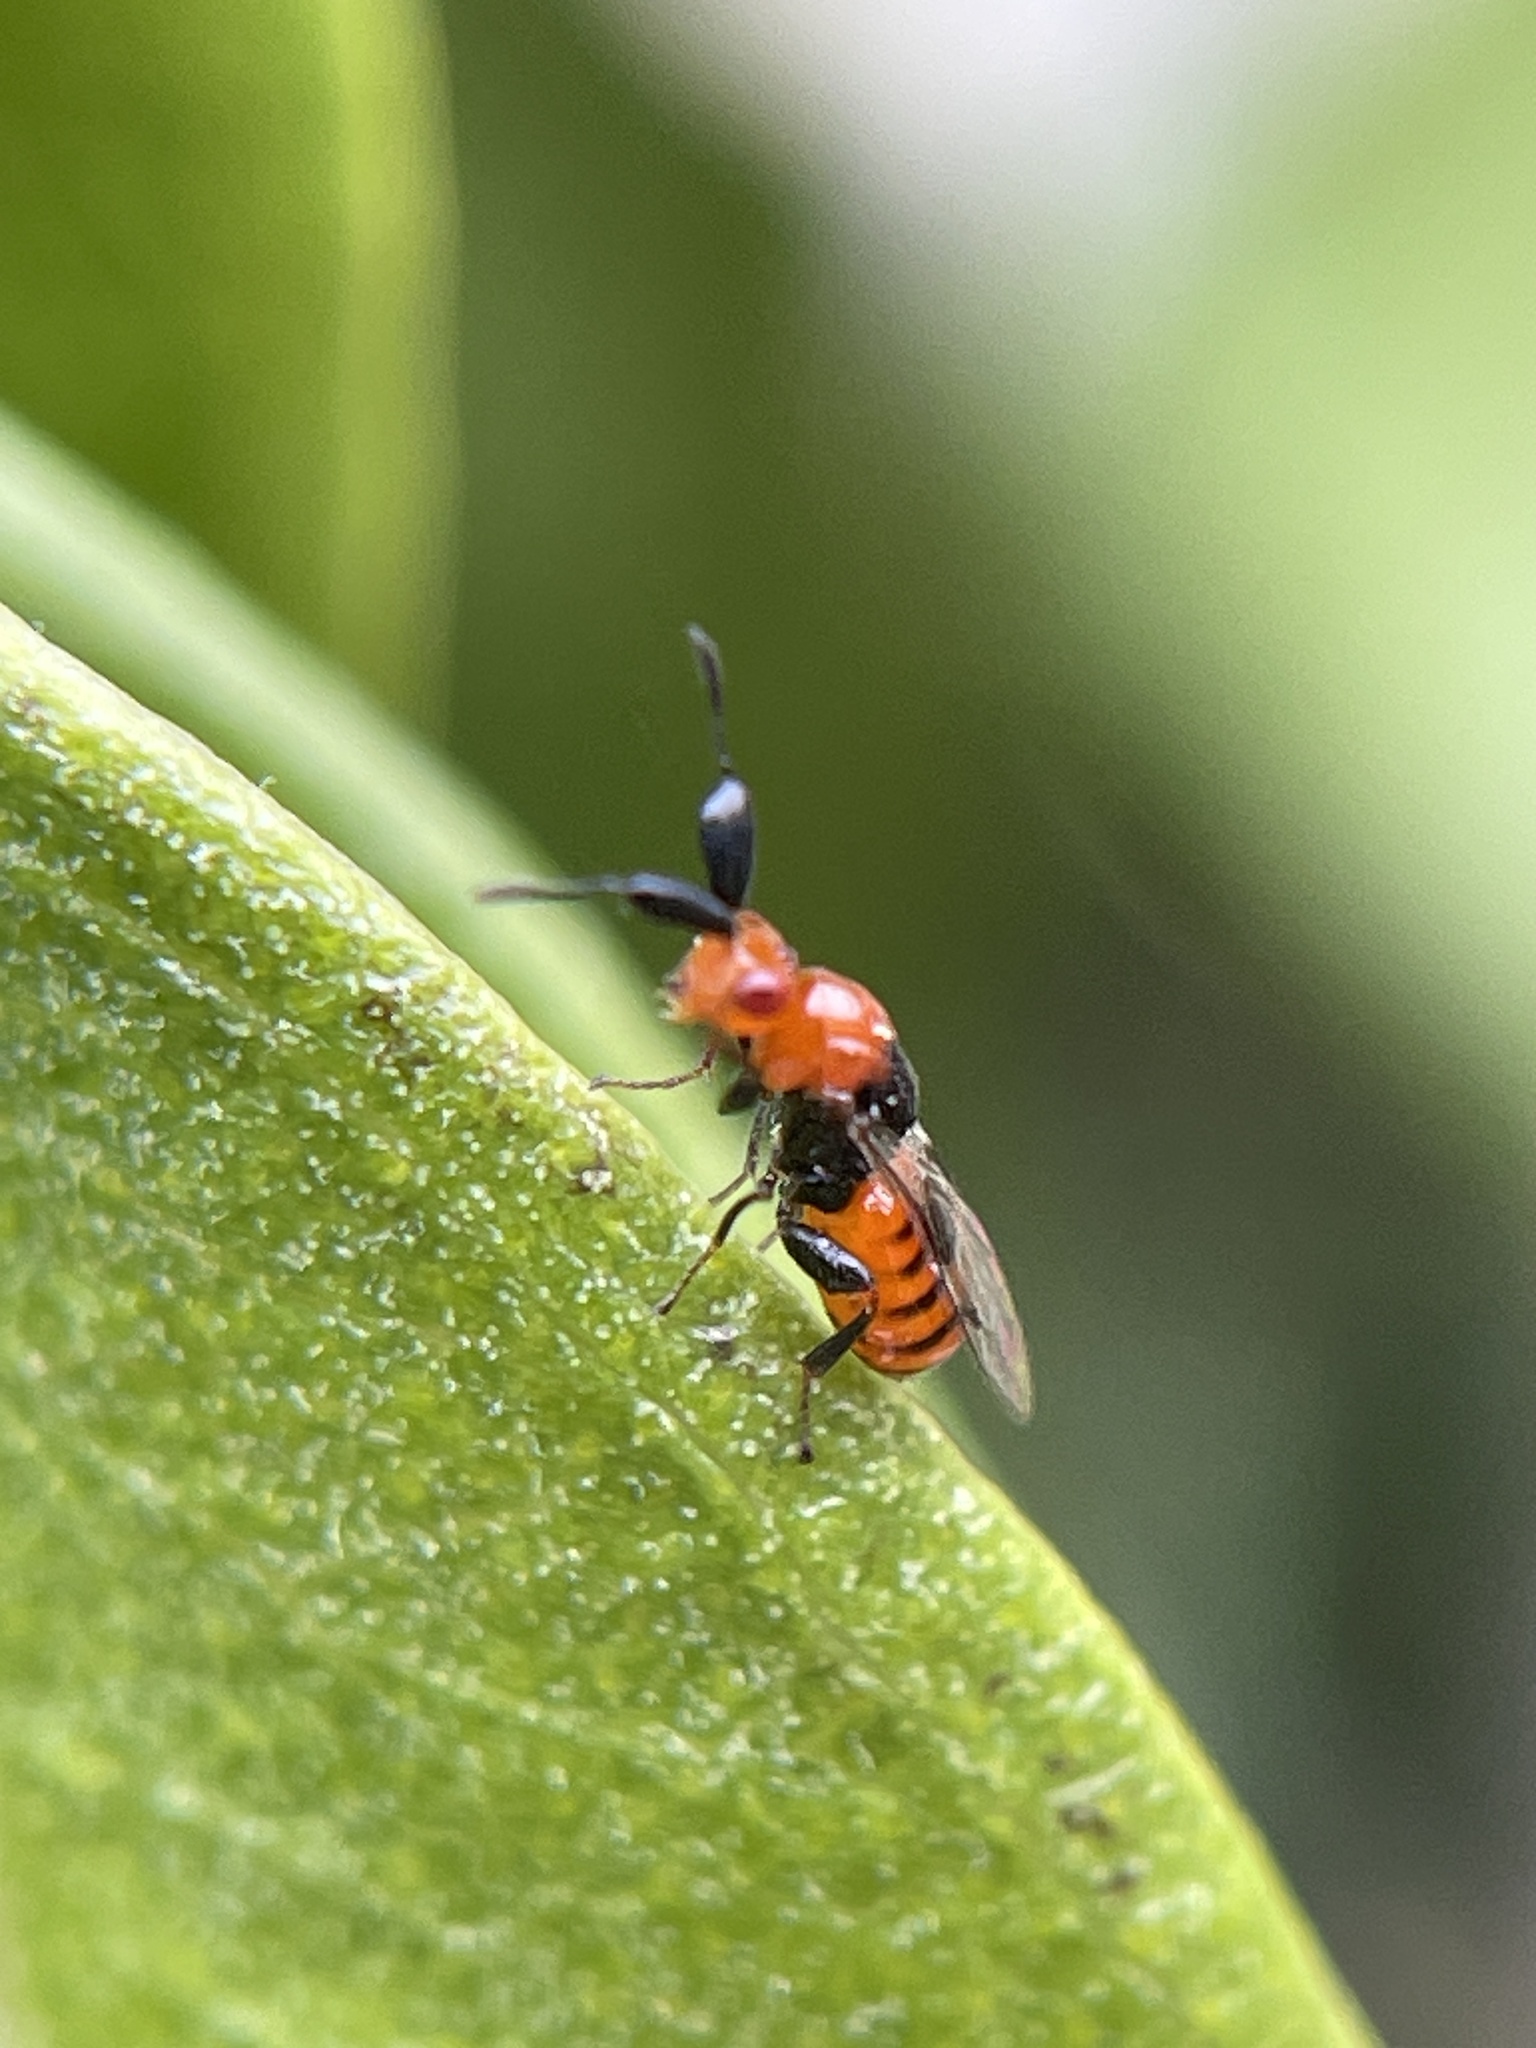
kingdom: Animalia
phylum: Arthropoda
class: Insecta
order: Hymenoptera
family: Pteromalidae
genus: Aeschylia
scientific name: Aeschylia mira
